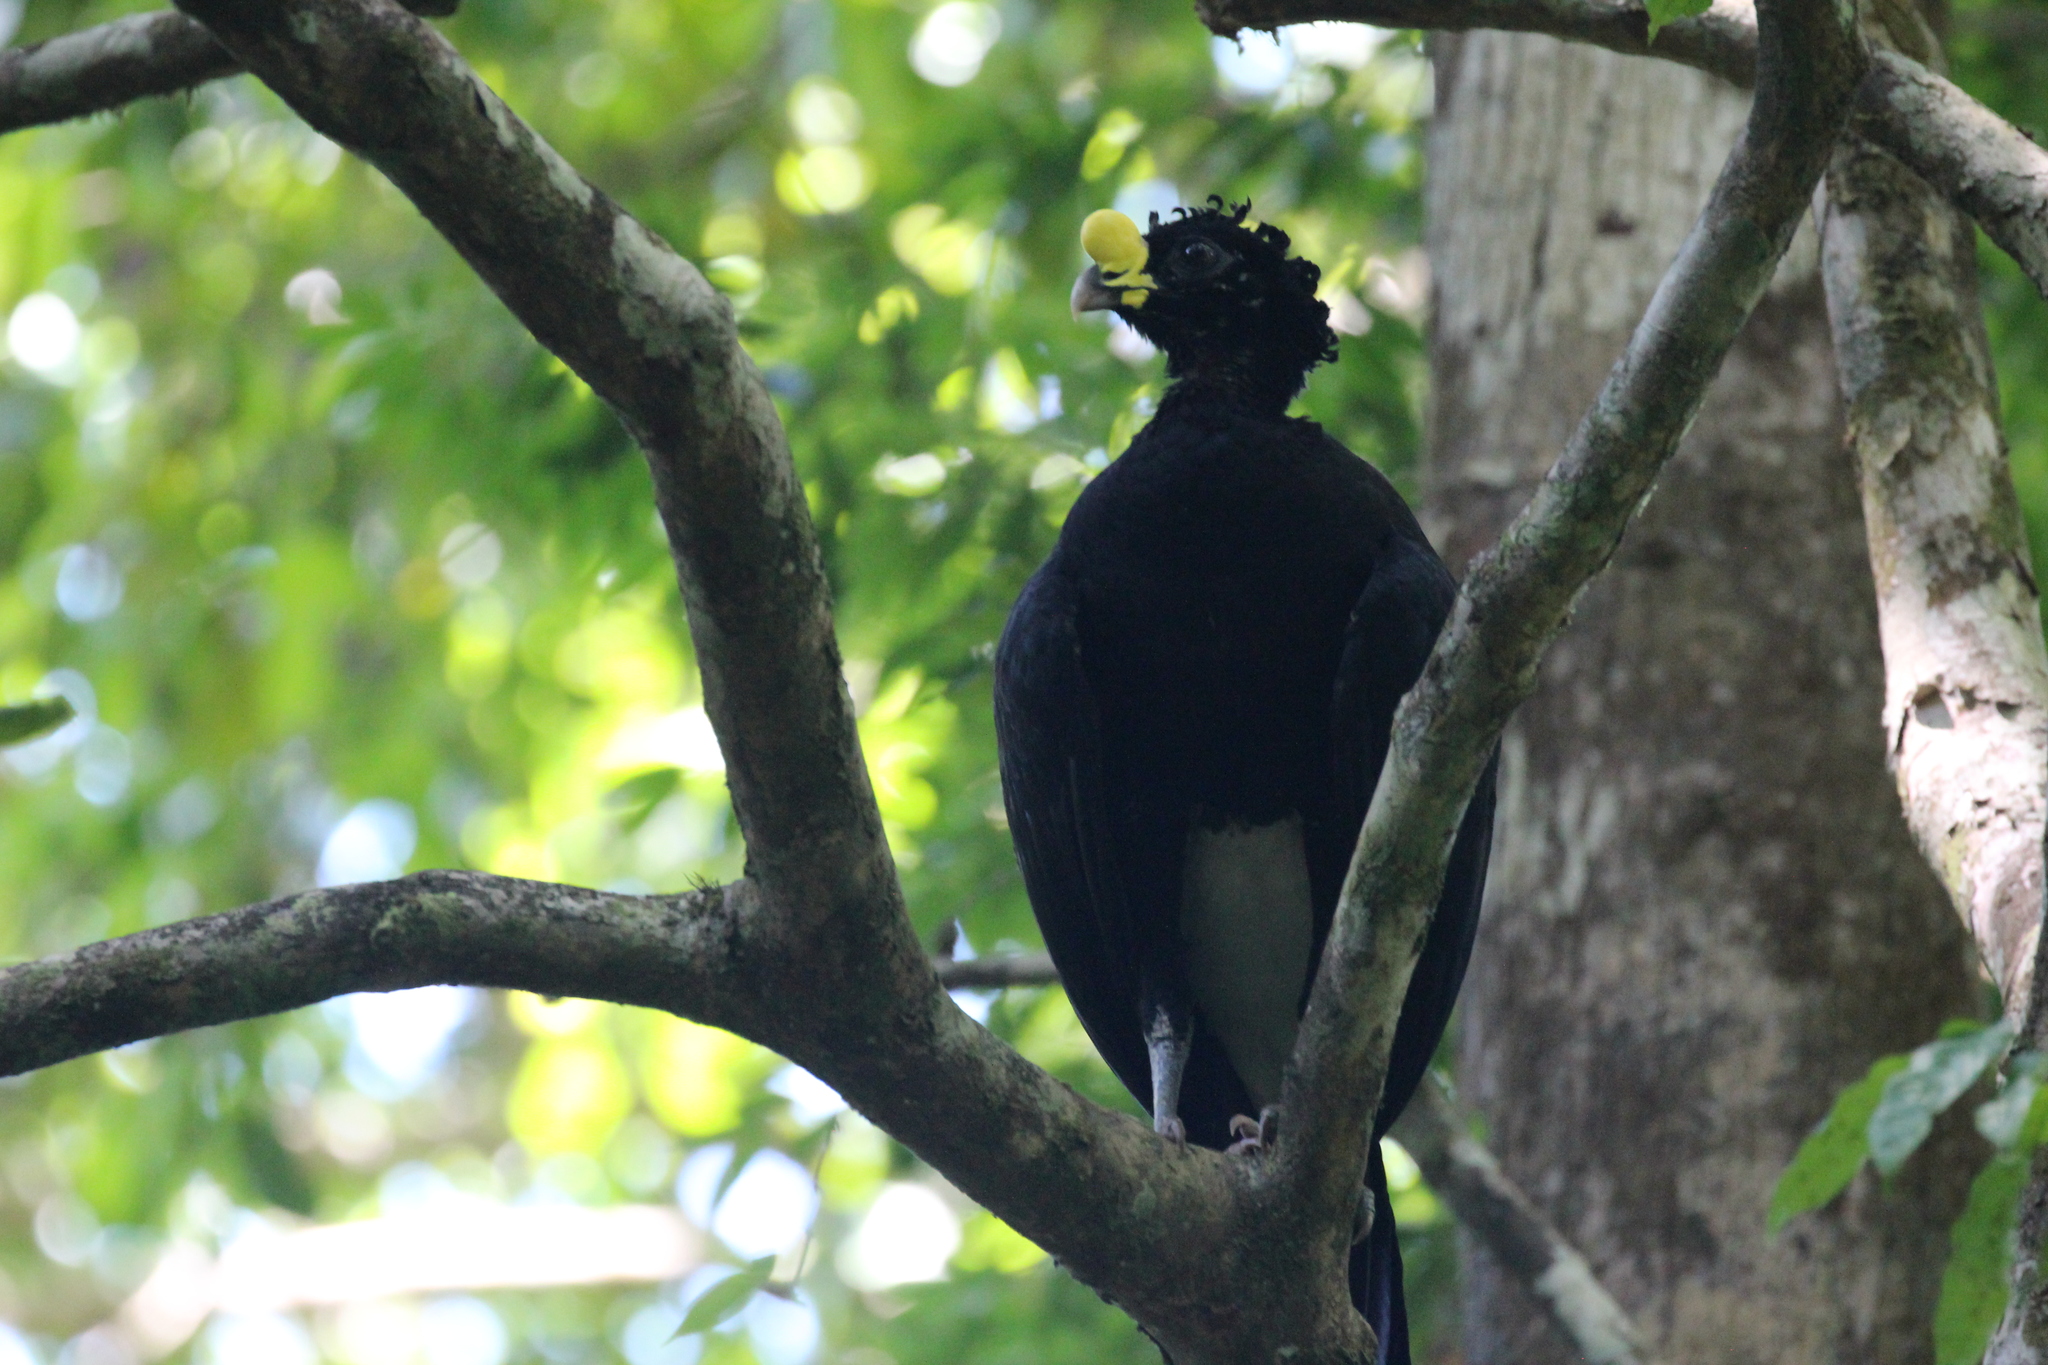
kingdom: Animalia
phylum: Chordata
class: Aves
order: Galliformes
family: Cracidae
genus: Crax
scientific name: Crax rubra
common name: Great curassow
